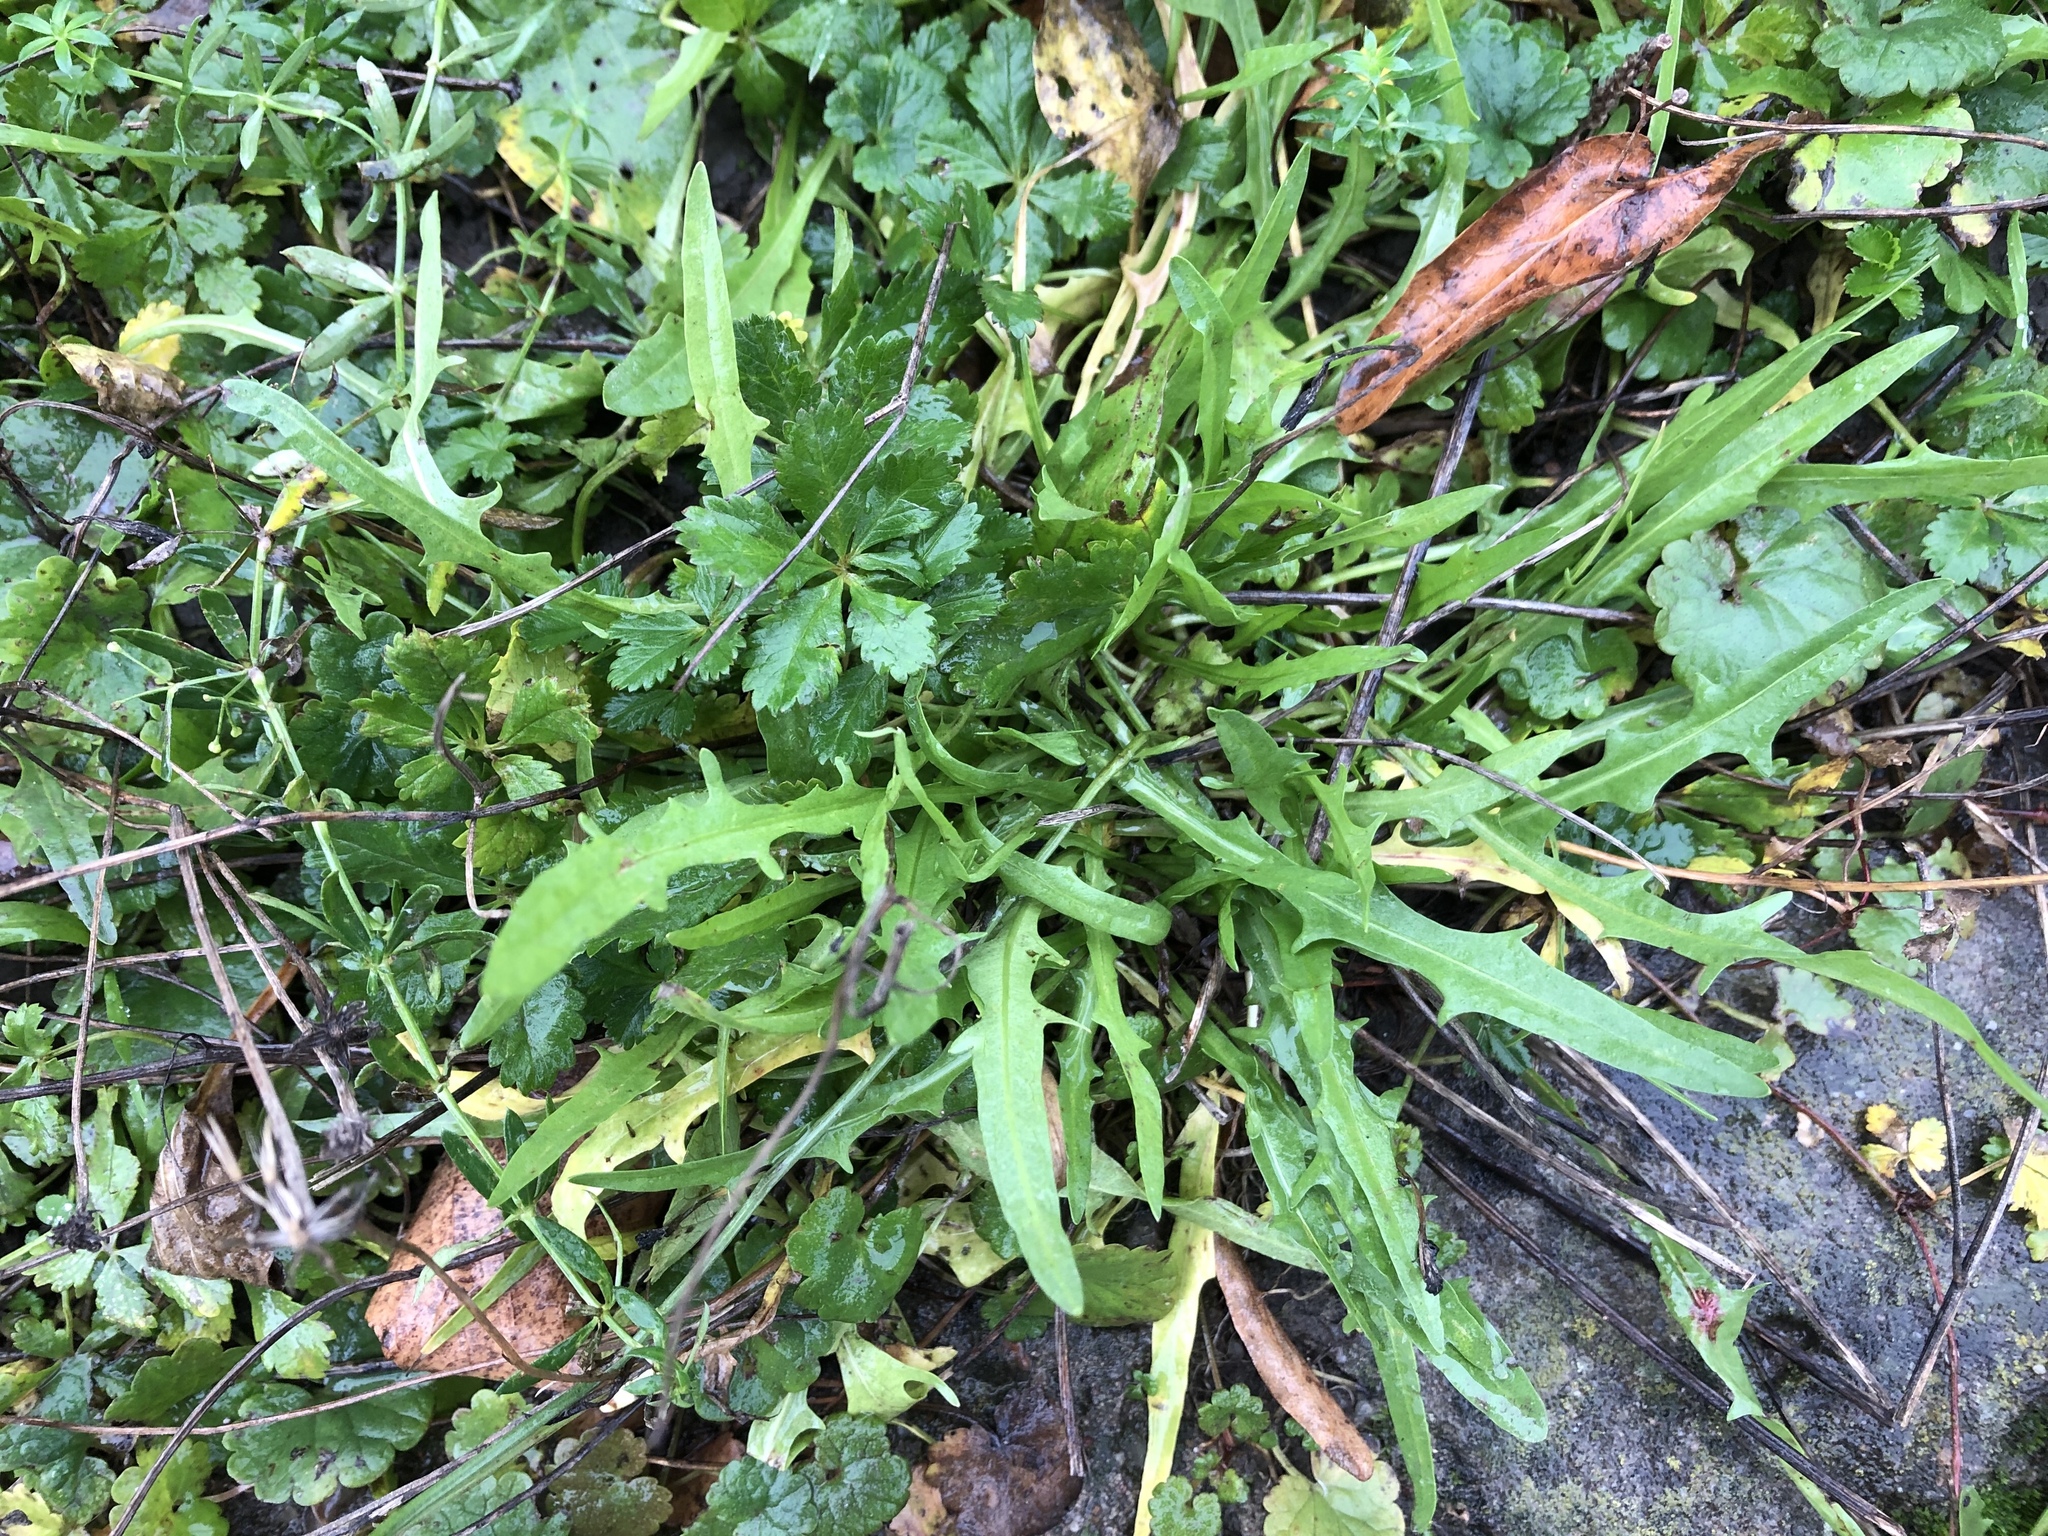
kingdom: Plantae
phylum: Tracheophyta
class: Magnoliopsida
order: Asterales
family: Asteraceae
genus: Scorzoneroides
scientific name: Scorzoneroides autumnalis
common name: Autumn hawkbit
